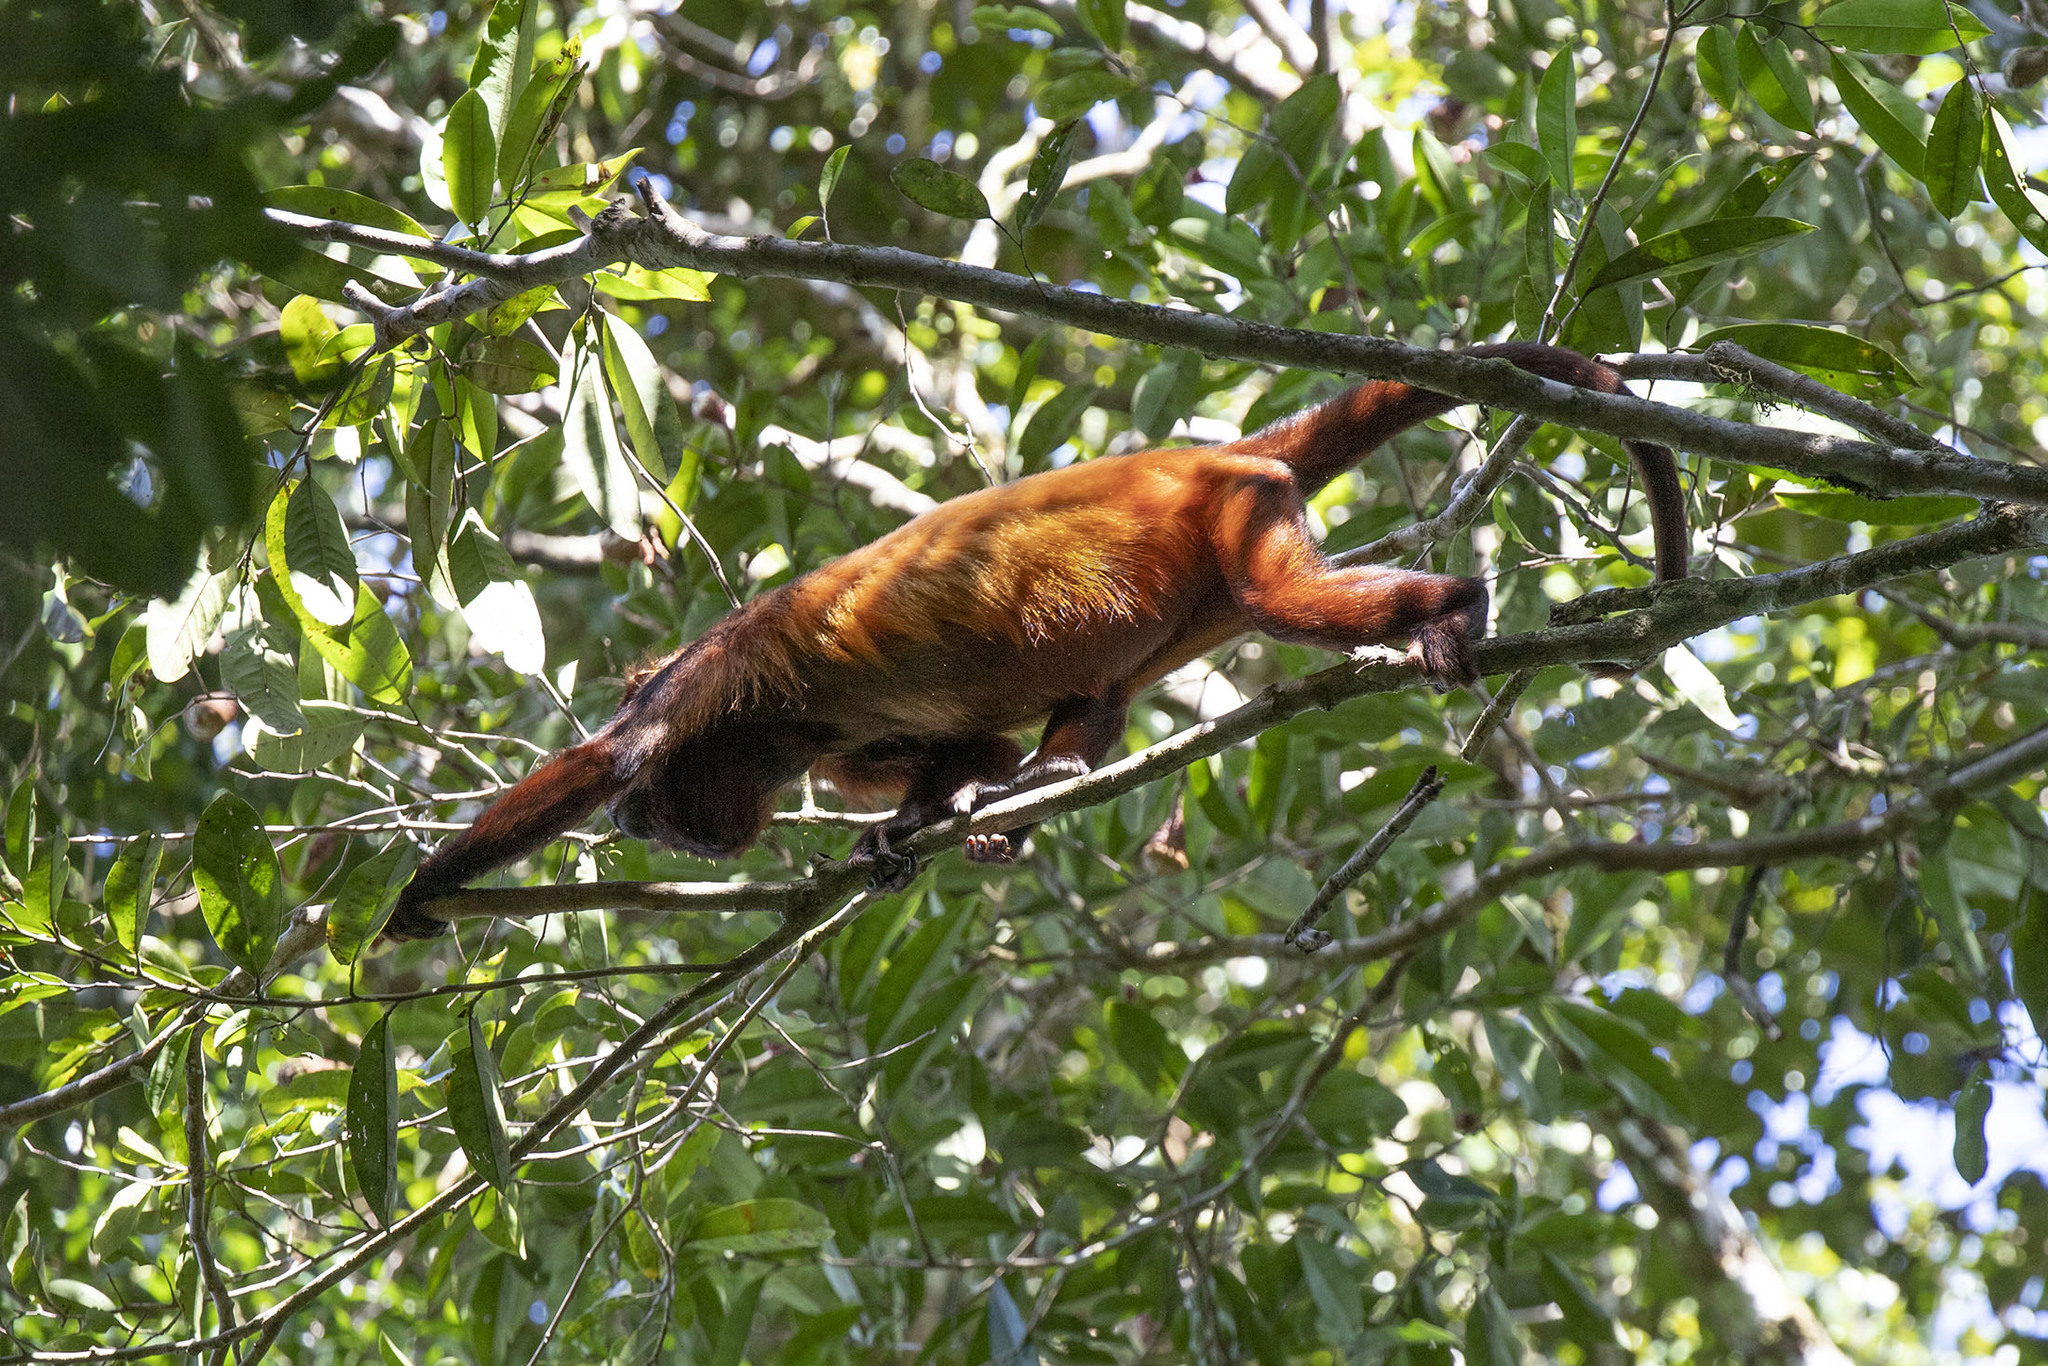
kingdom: Animalia
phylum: Chordata
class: Mammalia
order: Primates
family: Atelidae
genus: Alouatta
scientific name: Alouatta macconnelli
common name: Guyanan red howler
